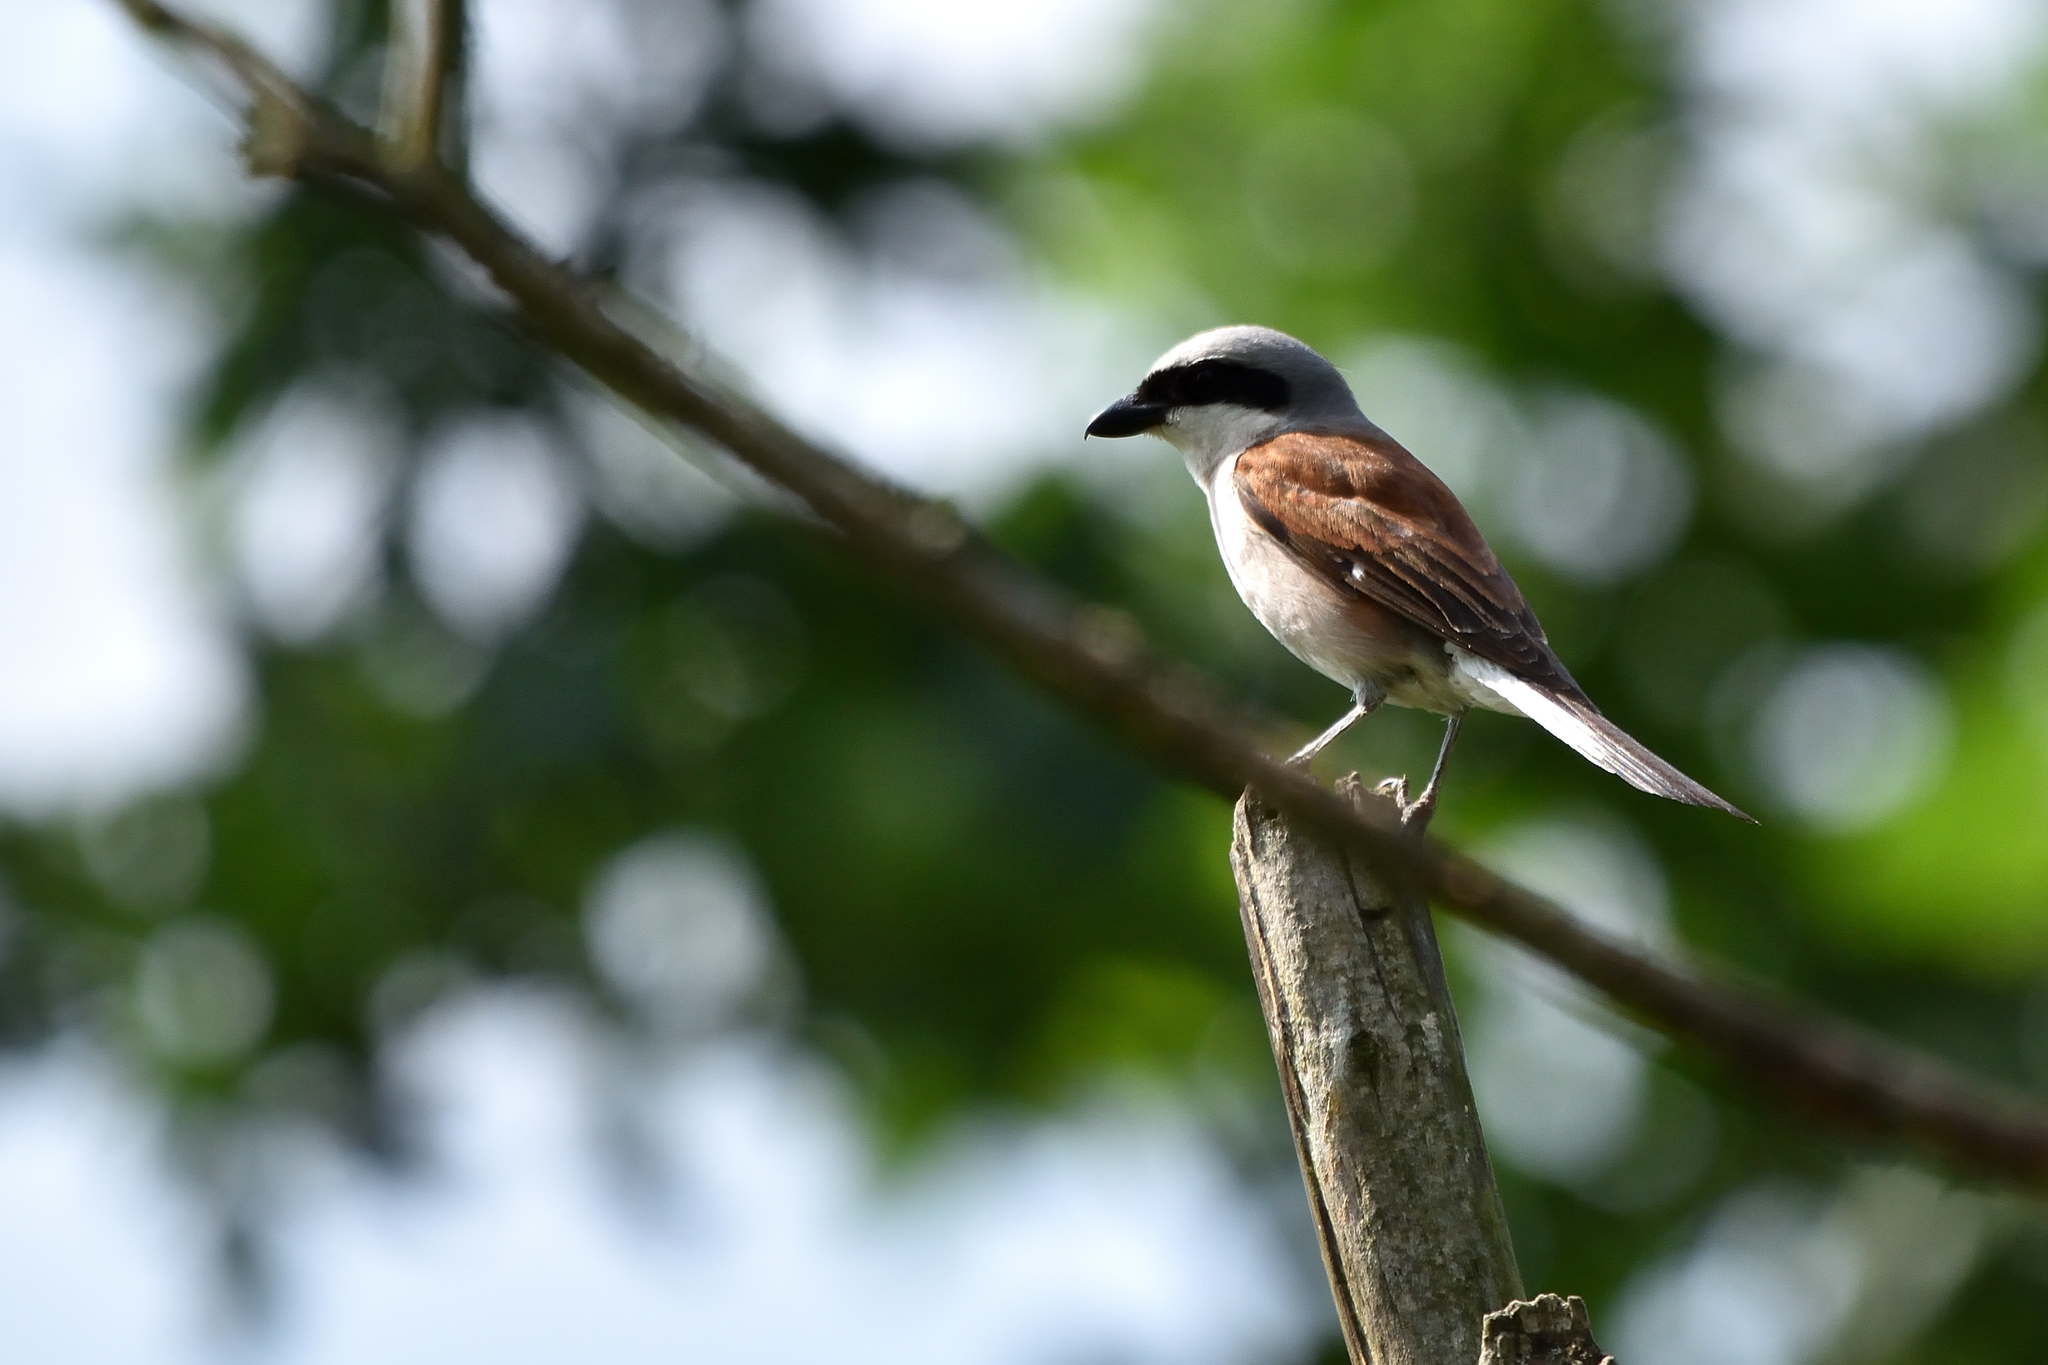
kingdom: Animalia
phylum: Chordata
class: Aves
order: Passeriformes
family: Laniidae
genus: Lanius
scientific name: Lanius collurio
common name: Red-backed shrike
